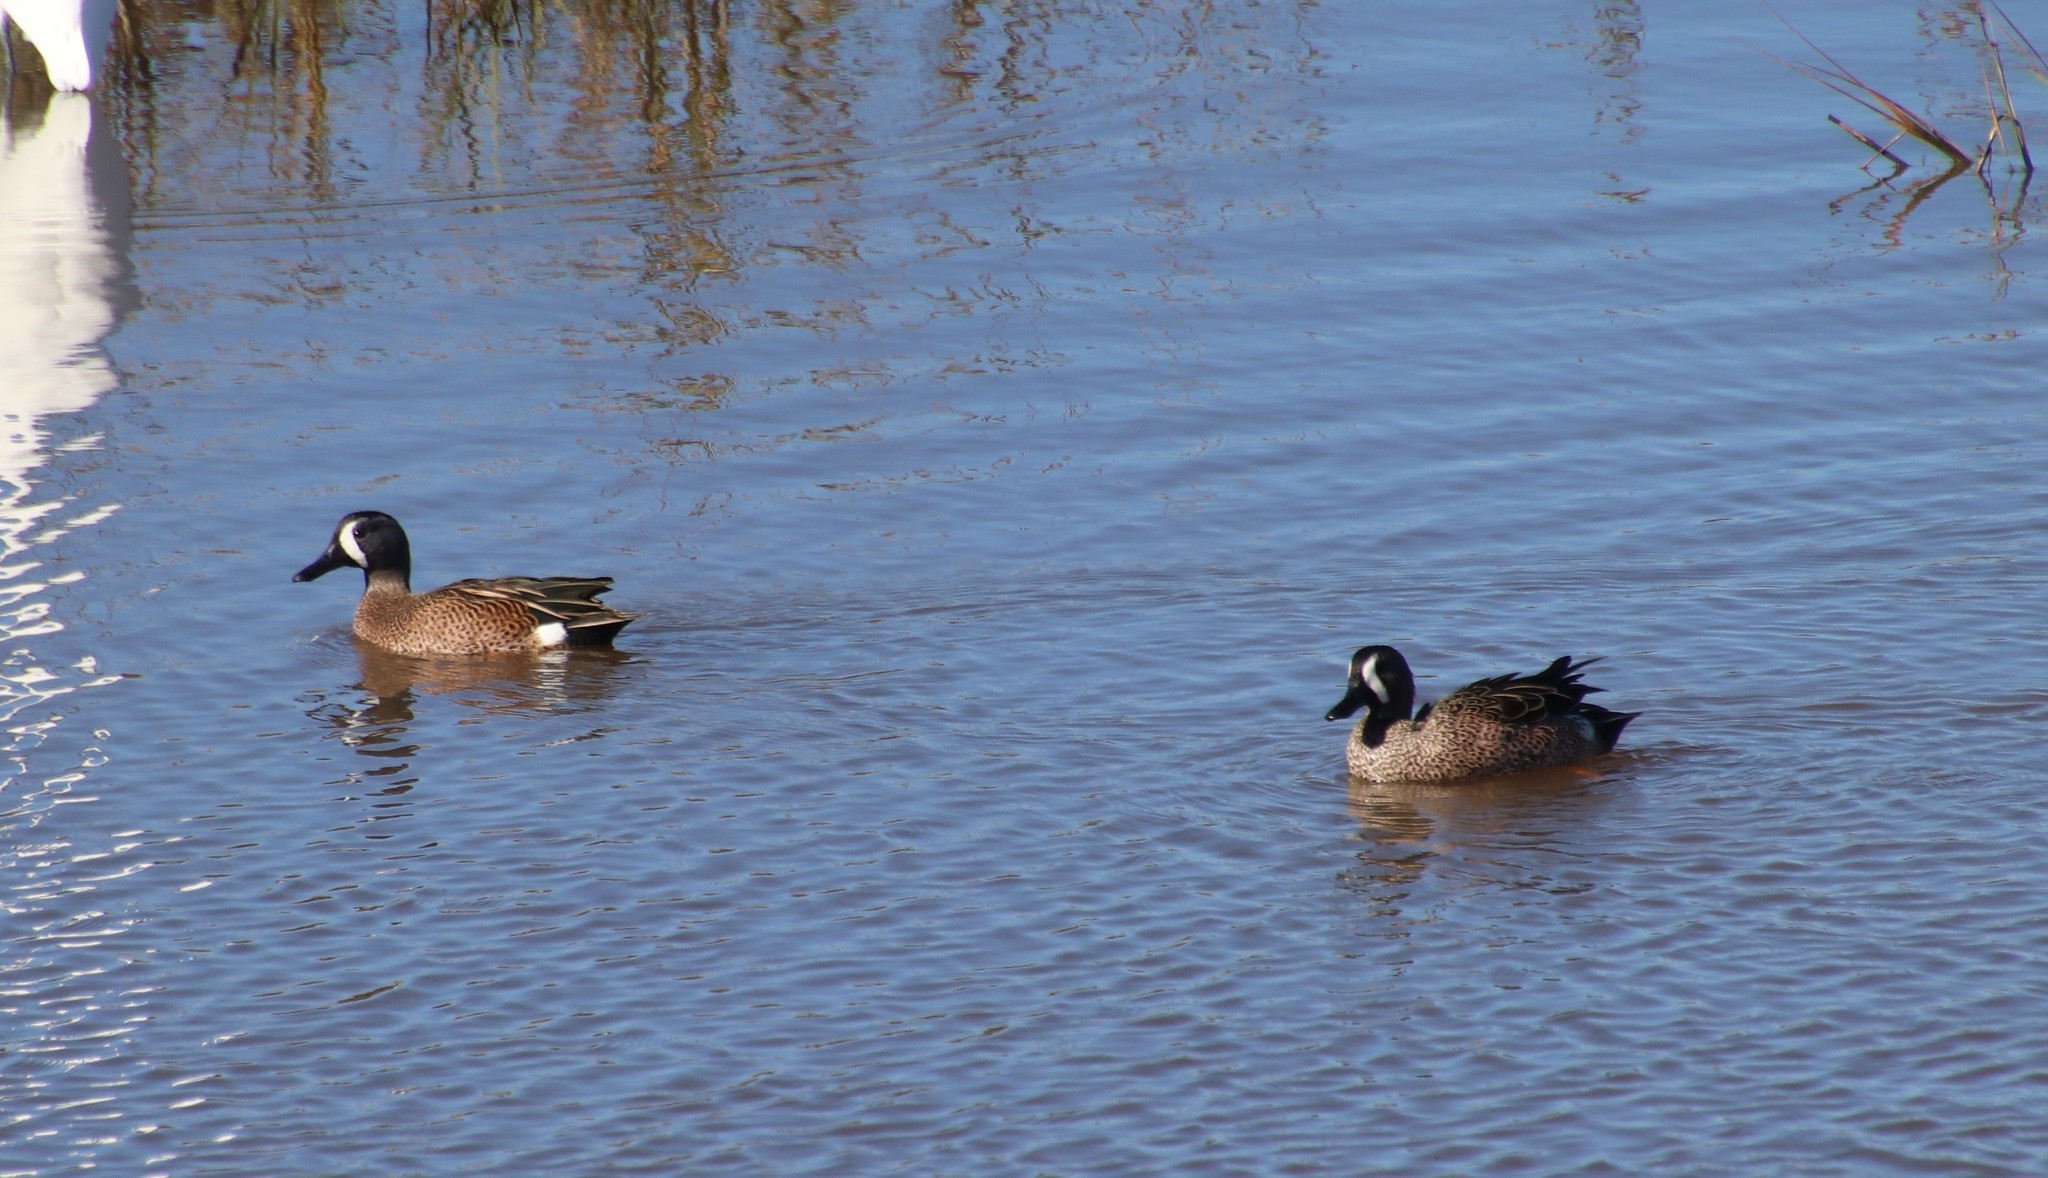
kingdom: Animalia
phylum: Chordata
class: Aves
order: Anseriformes
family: Anatidae
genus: Spatula
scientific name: Spatula discors
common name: Blue-winged teal
